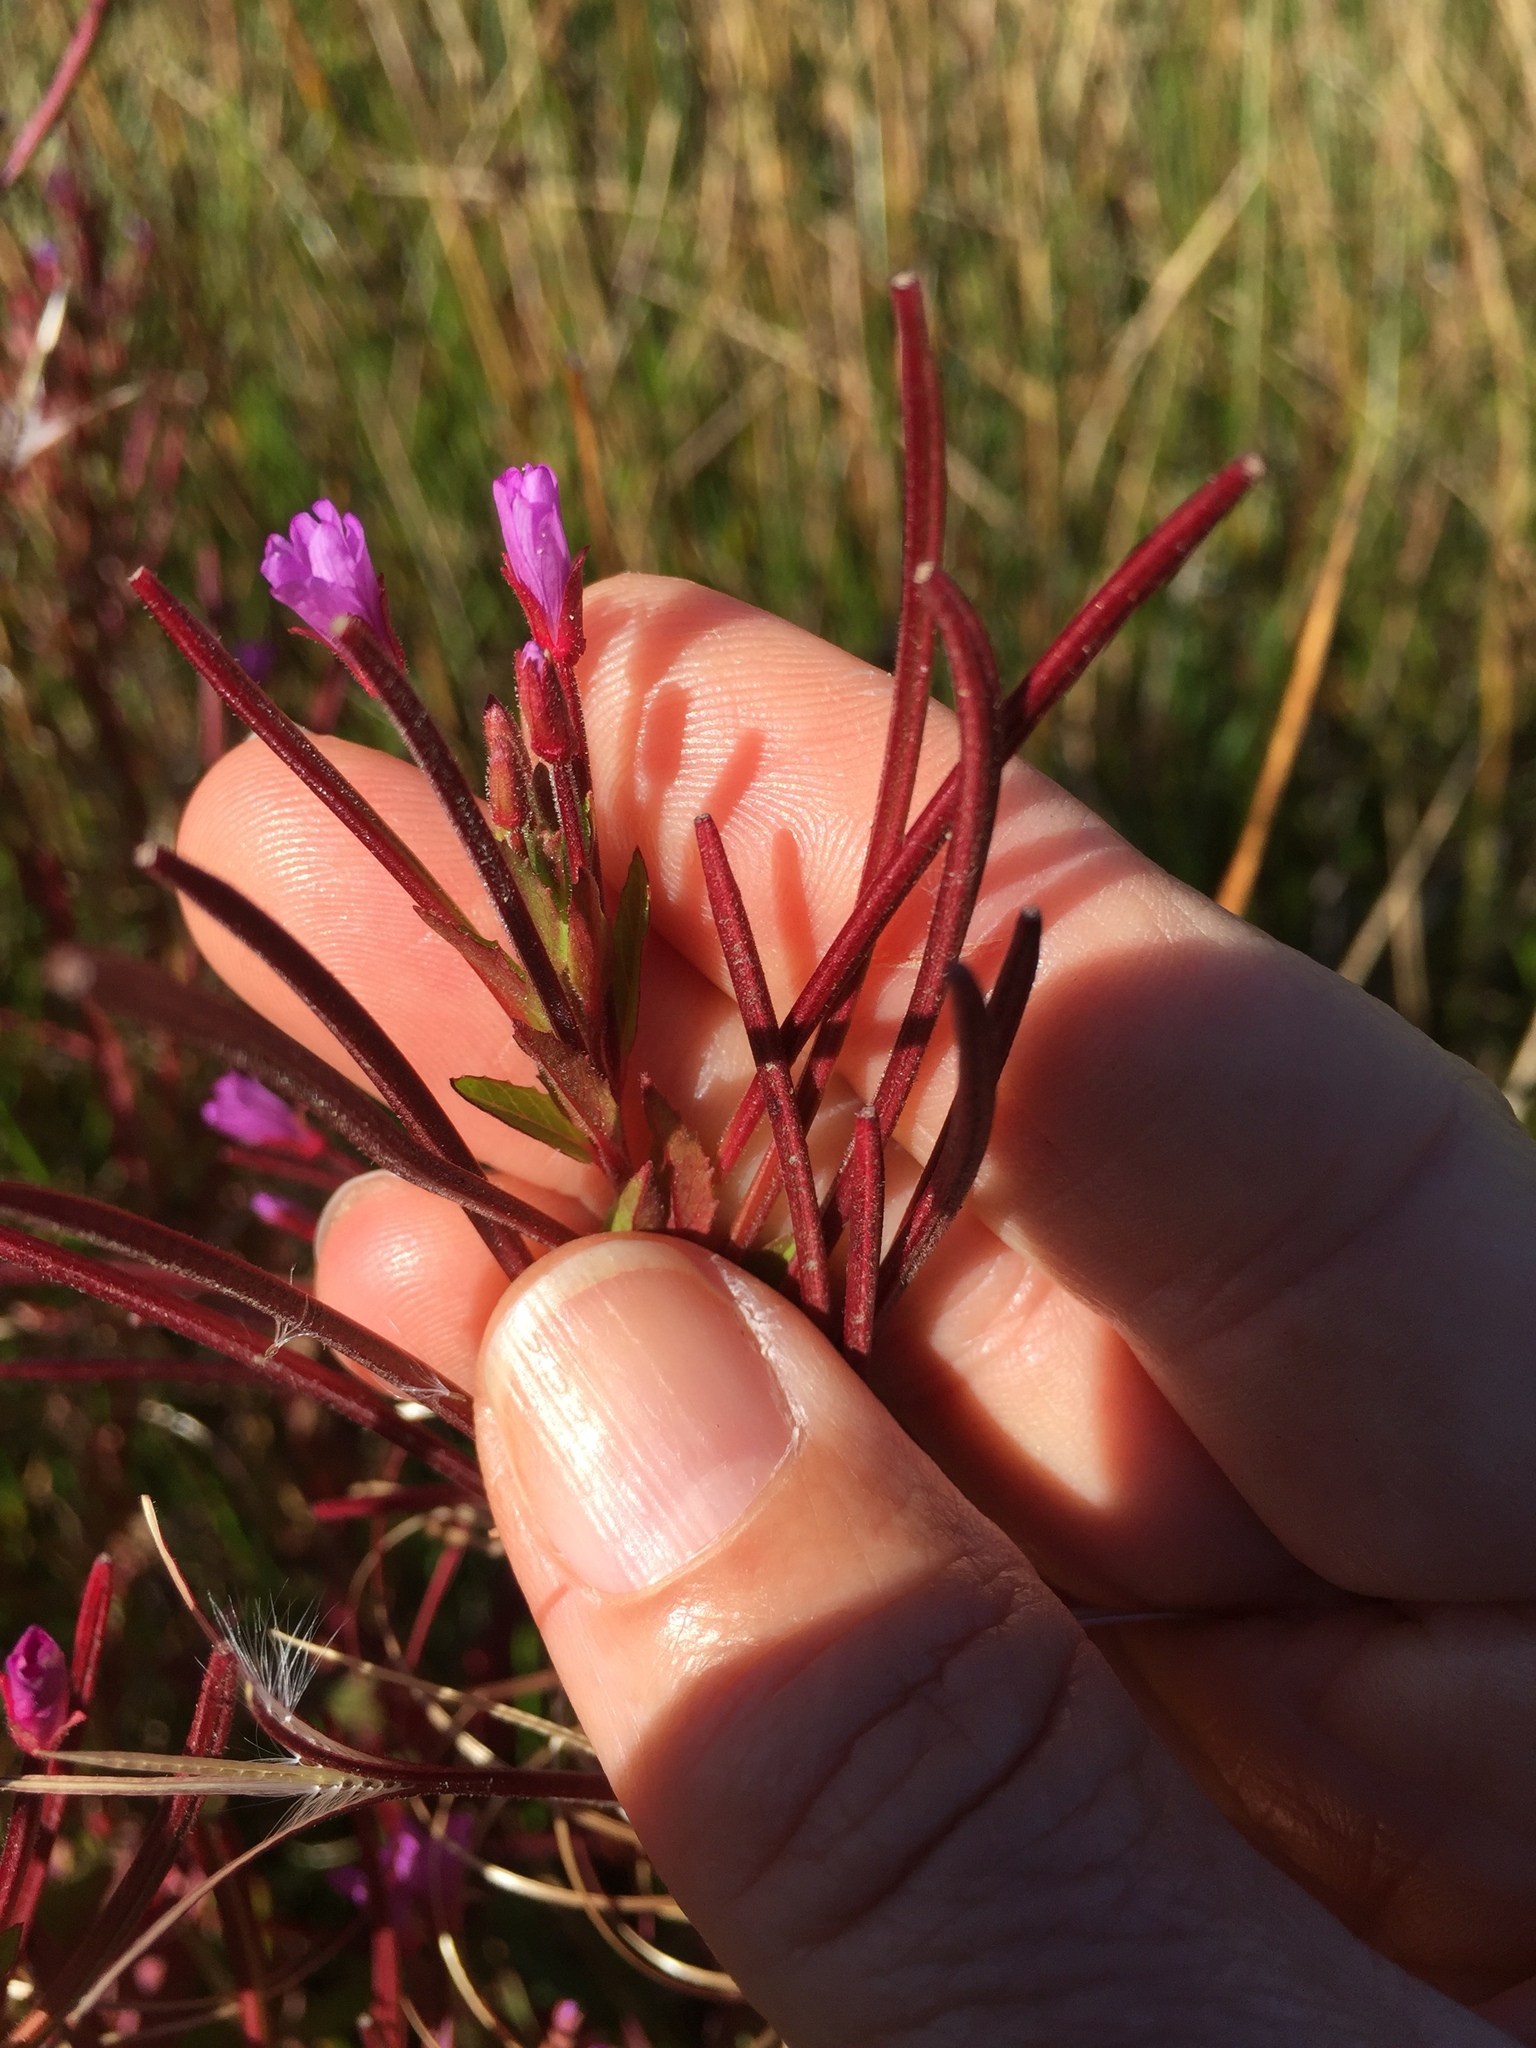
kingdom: Plantae
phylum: Tracheophyta
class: Magnoliopsida
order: Myrtales
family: Onagraceae
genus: Epilobium
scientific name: Epilobium ciliatum
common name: American willowherb
